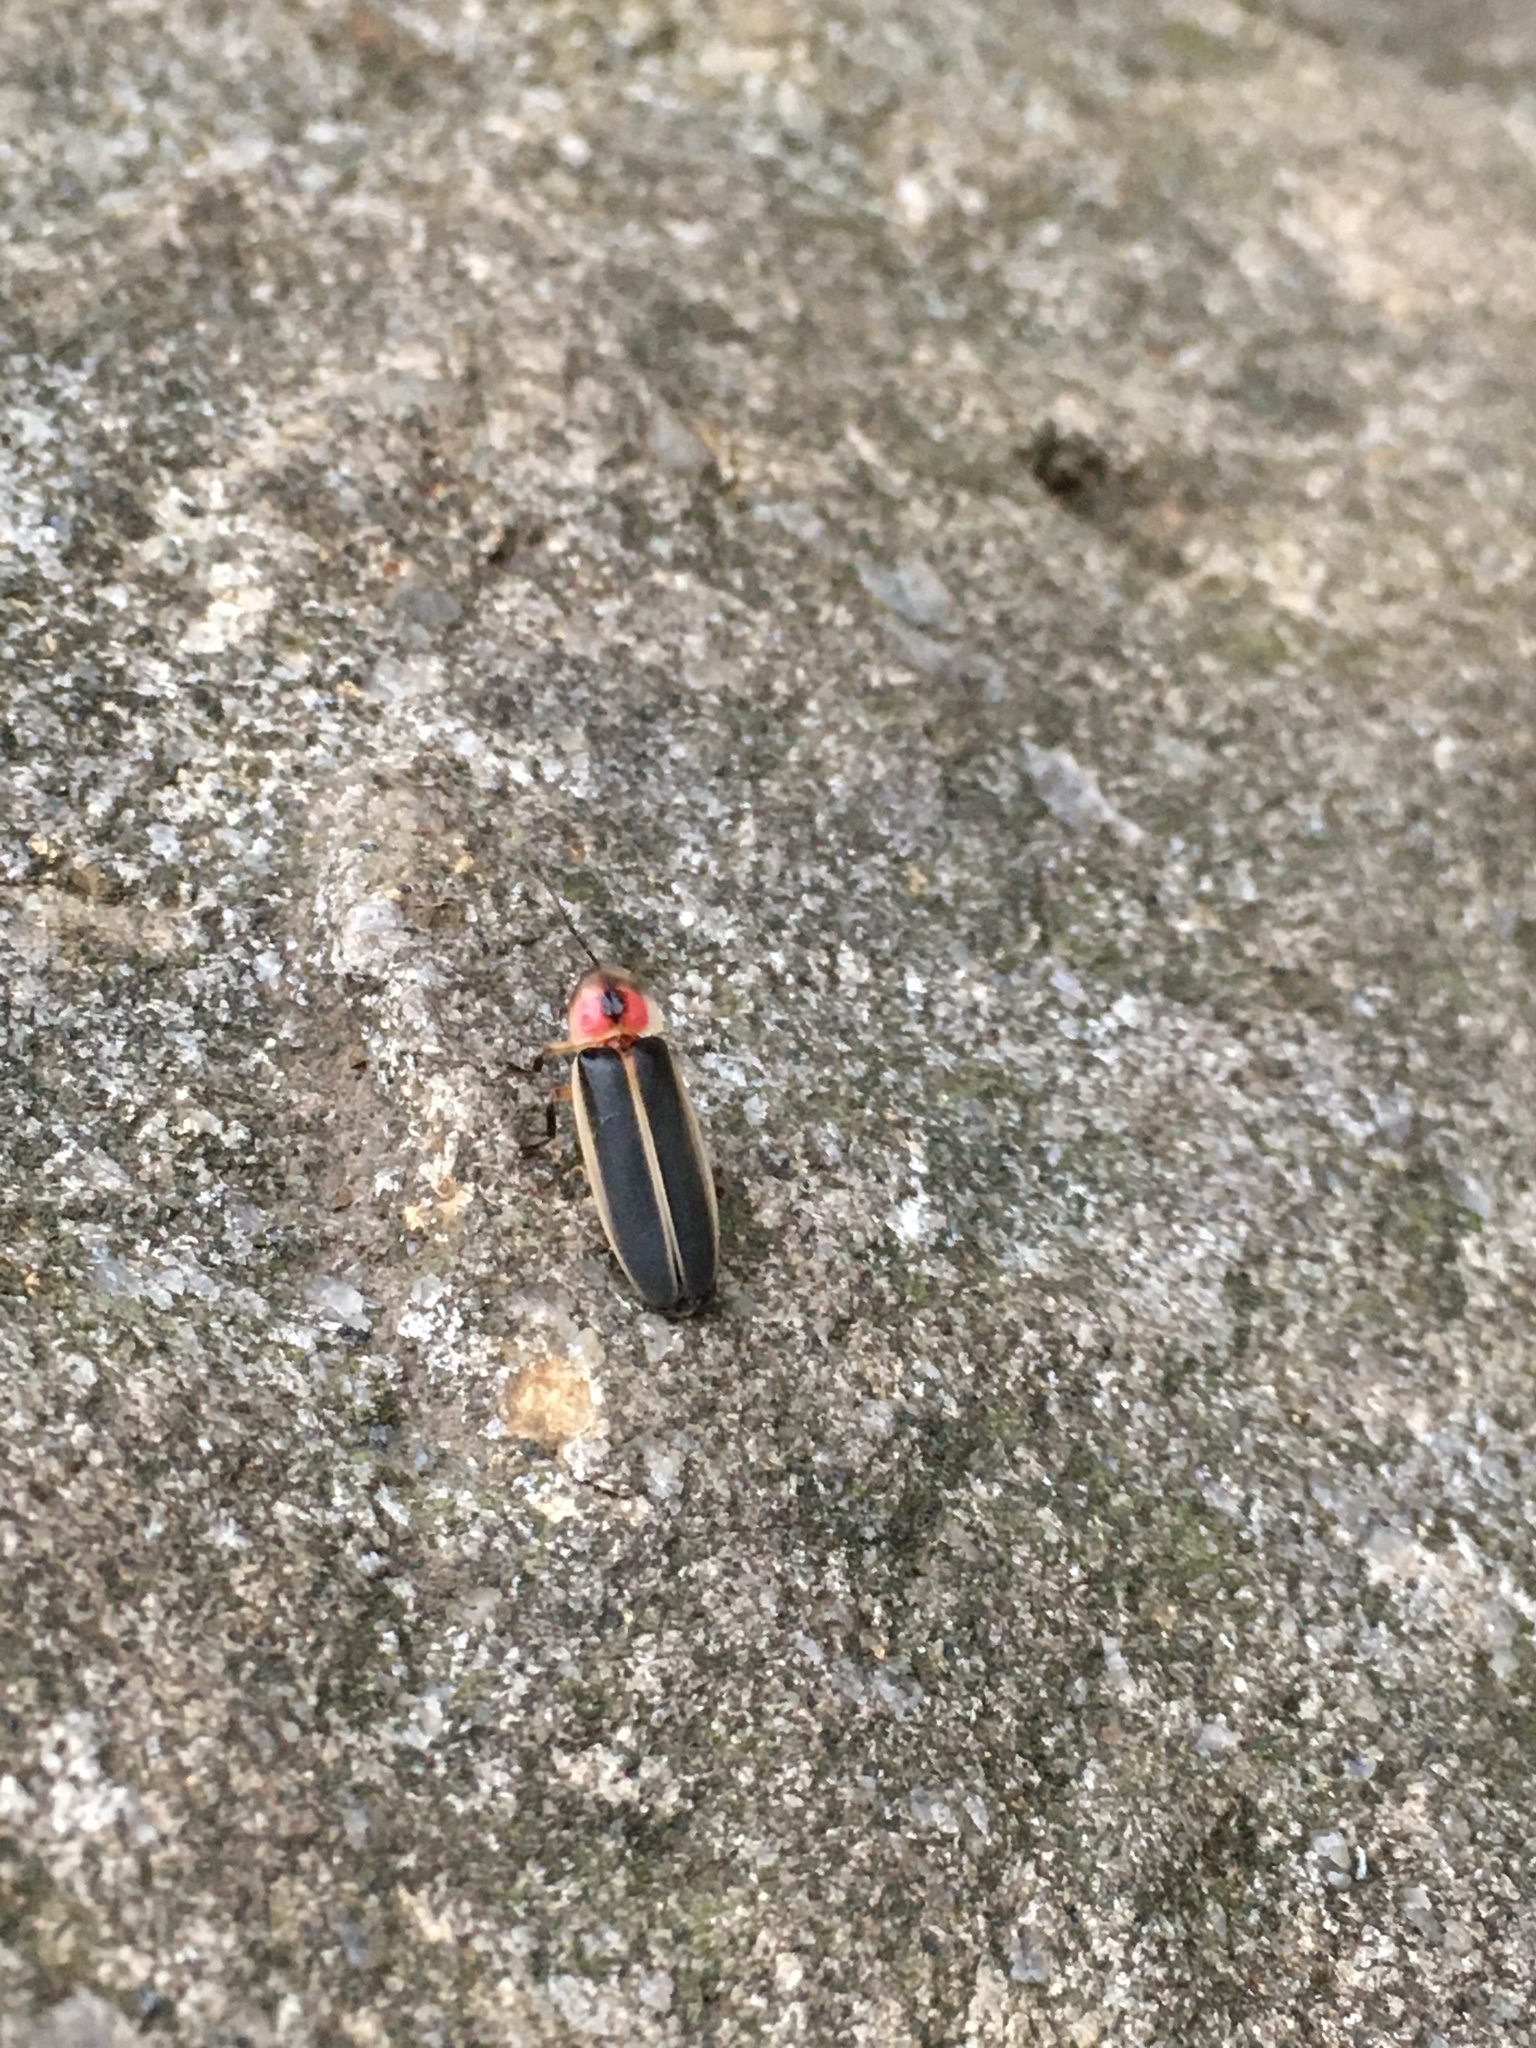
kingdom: Animalia
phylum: Arthropoda
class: Insecta
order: Coleoptera
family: Lampyridae
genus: Photinus
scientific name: Photinus pyralis
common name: Big dipper firefly
